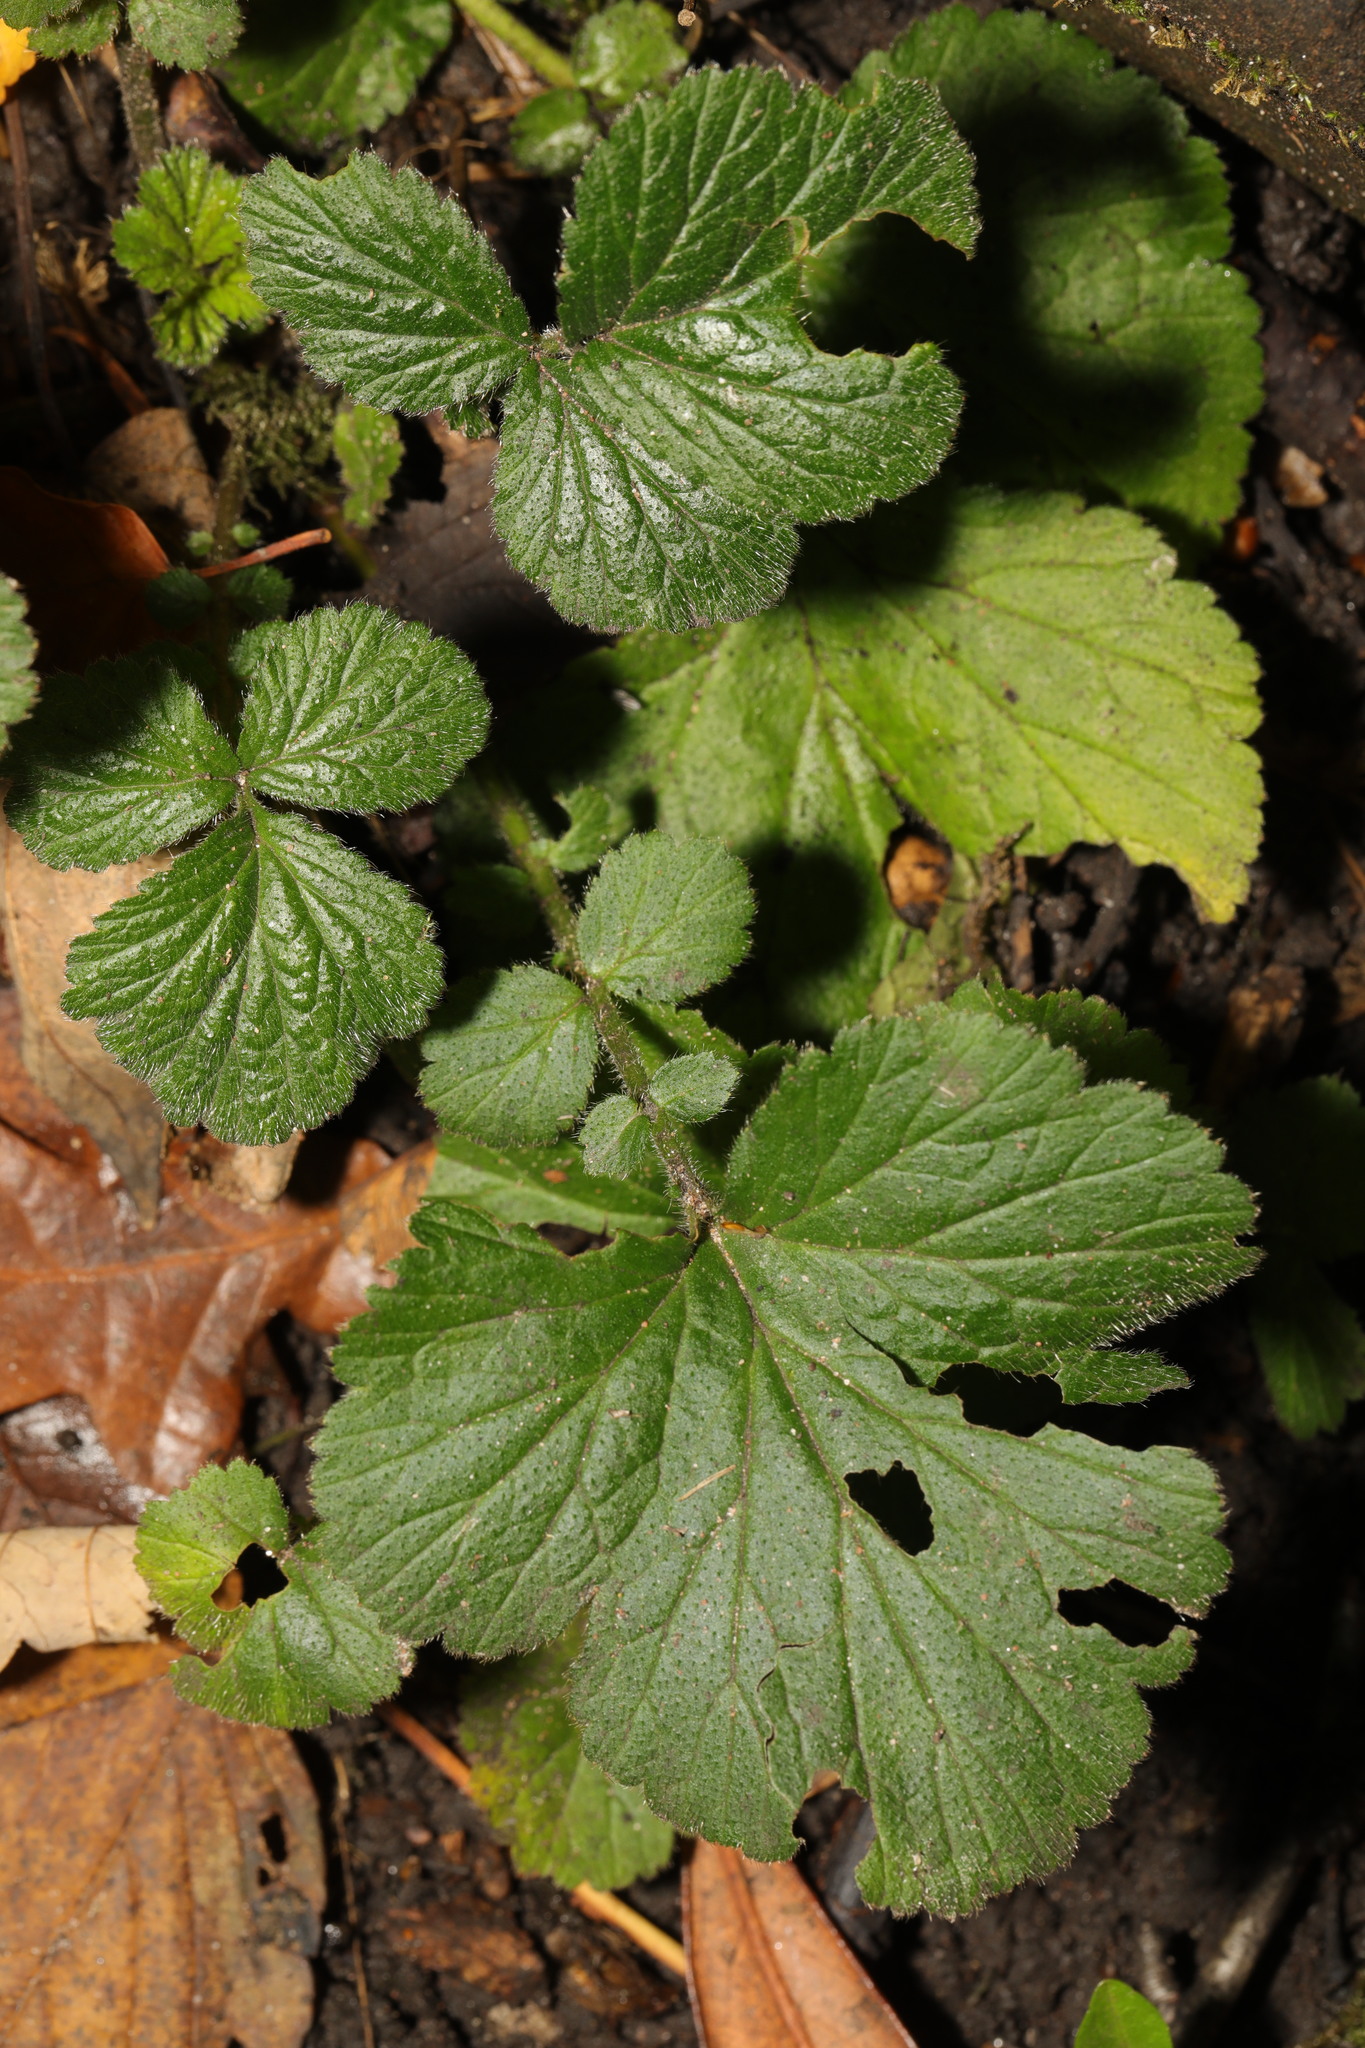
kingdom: Plantae
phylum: Tracheophyta
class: Magnoliopsida
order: Rosales
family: Rosaceae
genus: Geum
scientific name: Geum urbanum
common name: Wood avens
